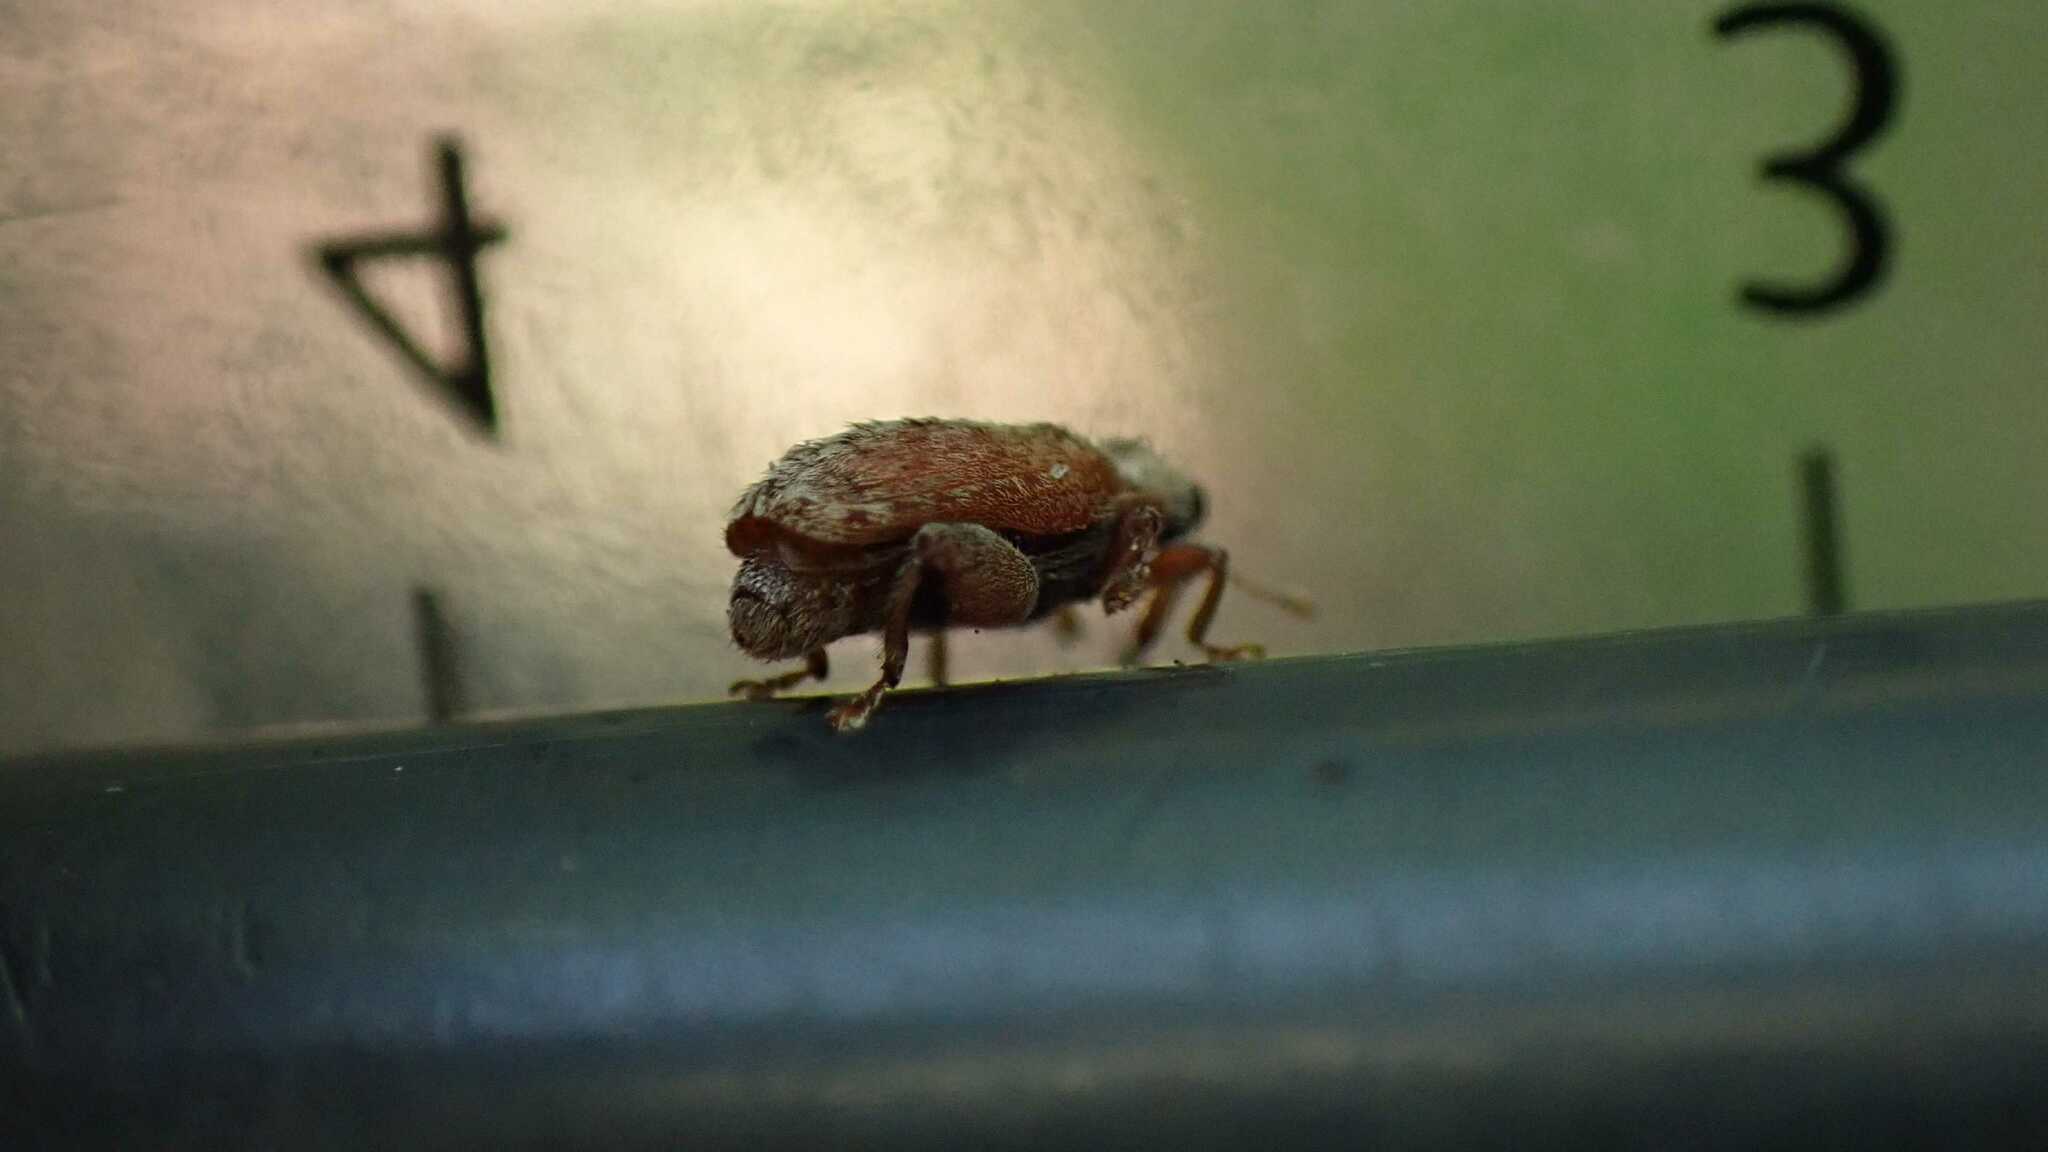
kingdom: Animalia
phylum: Arthropoda
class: Insecta
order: Coleoptera
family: Curculionidae
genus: Orchestes
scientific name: Orchestes quercus
